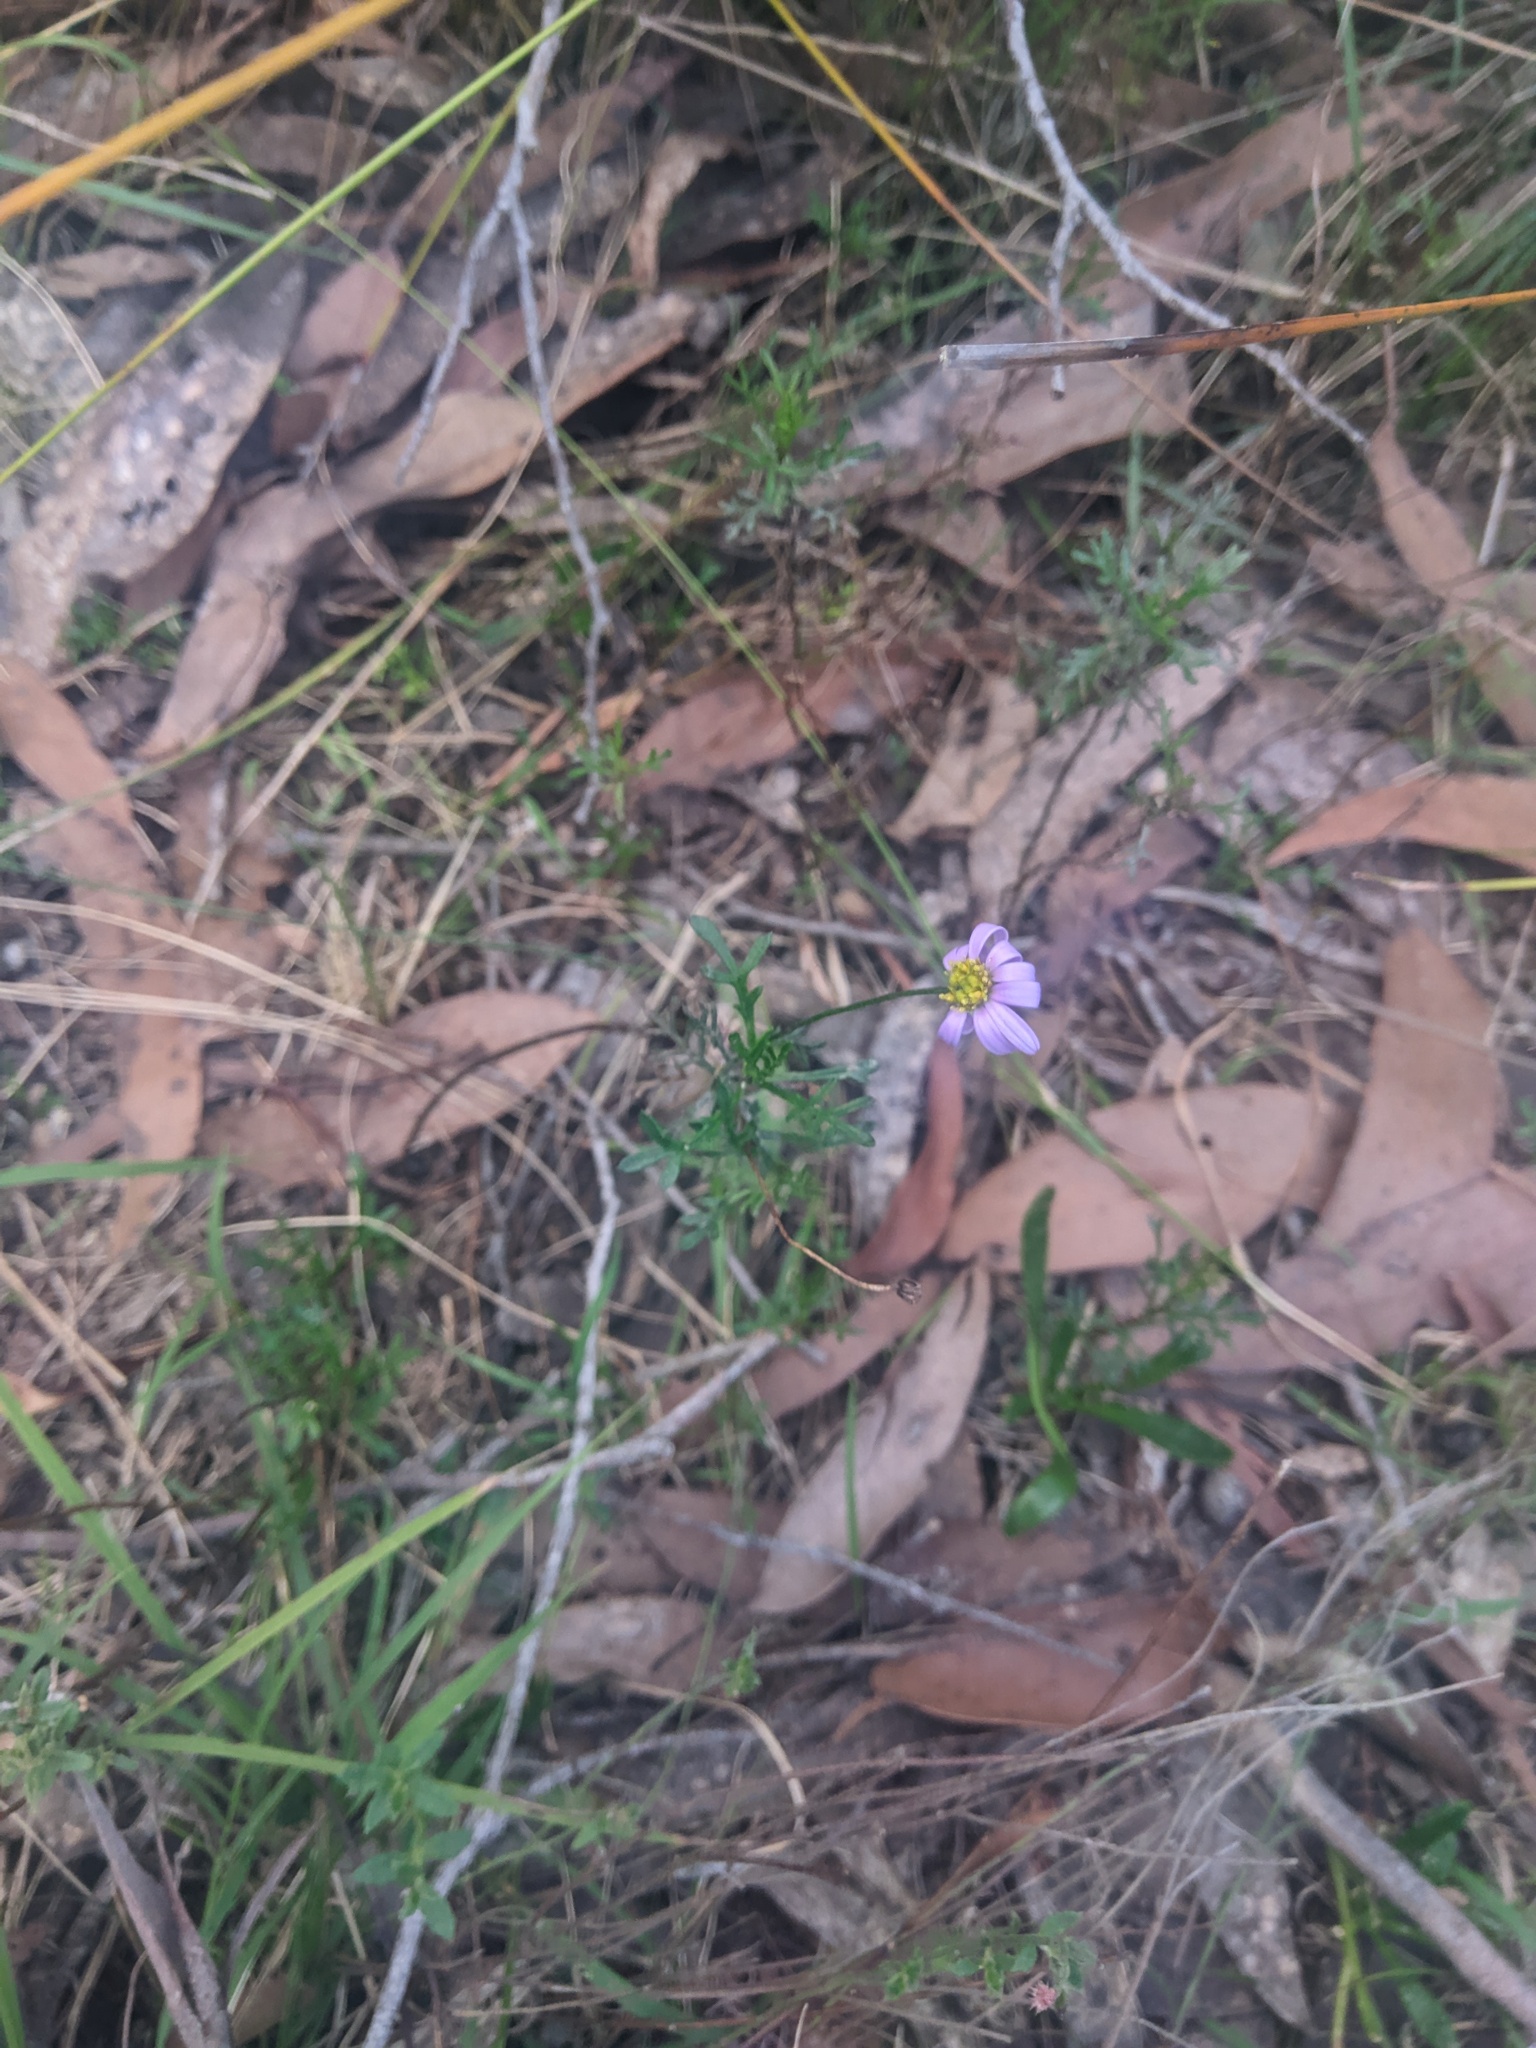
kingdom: Plantae
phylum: Tracheophyta
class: Magnoliopsida
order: Asterales
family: Asteraceae
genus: Brachyscome
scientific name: Brachyscome multifida
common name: Cut-leaf daisy
